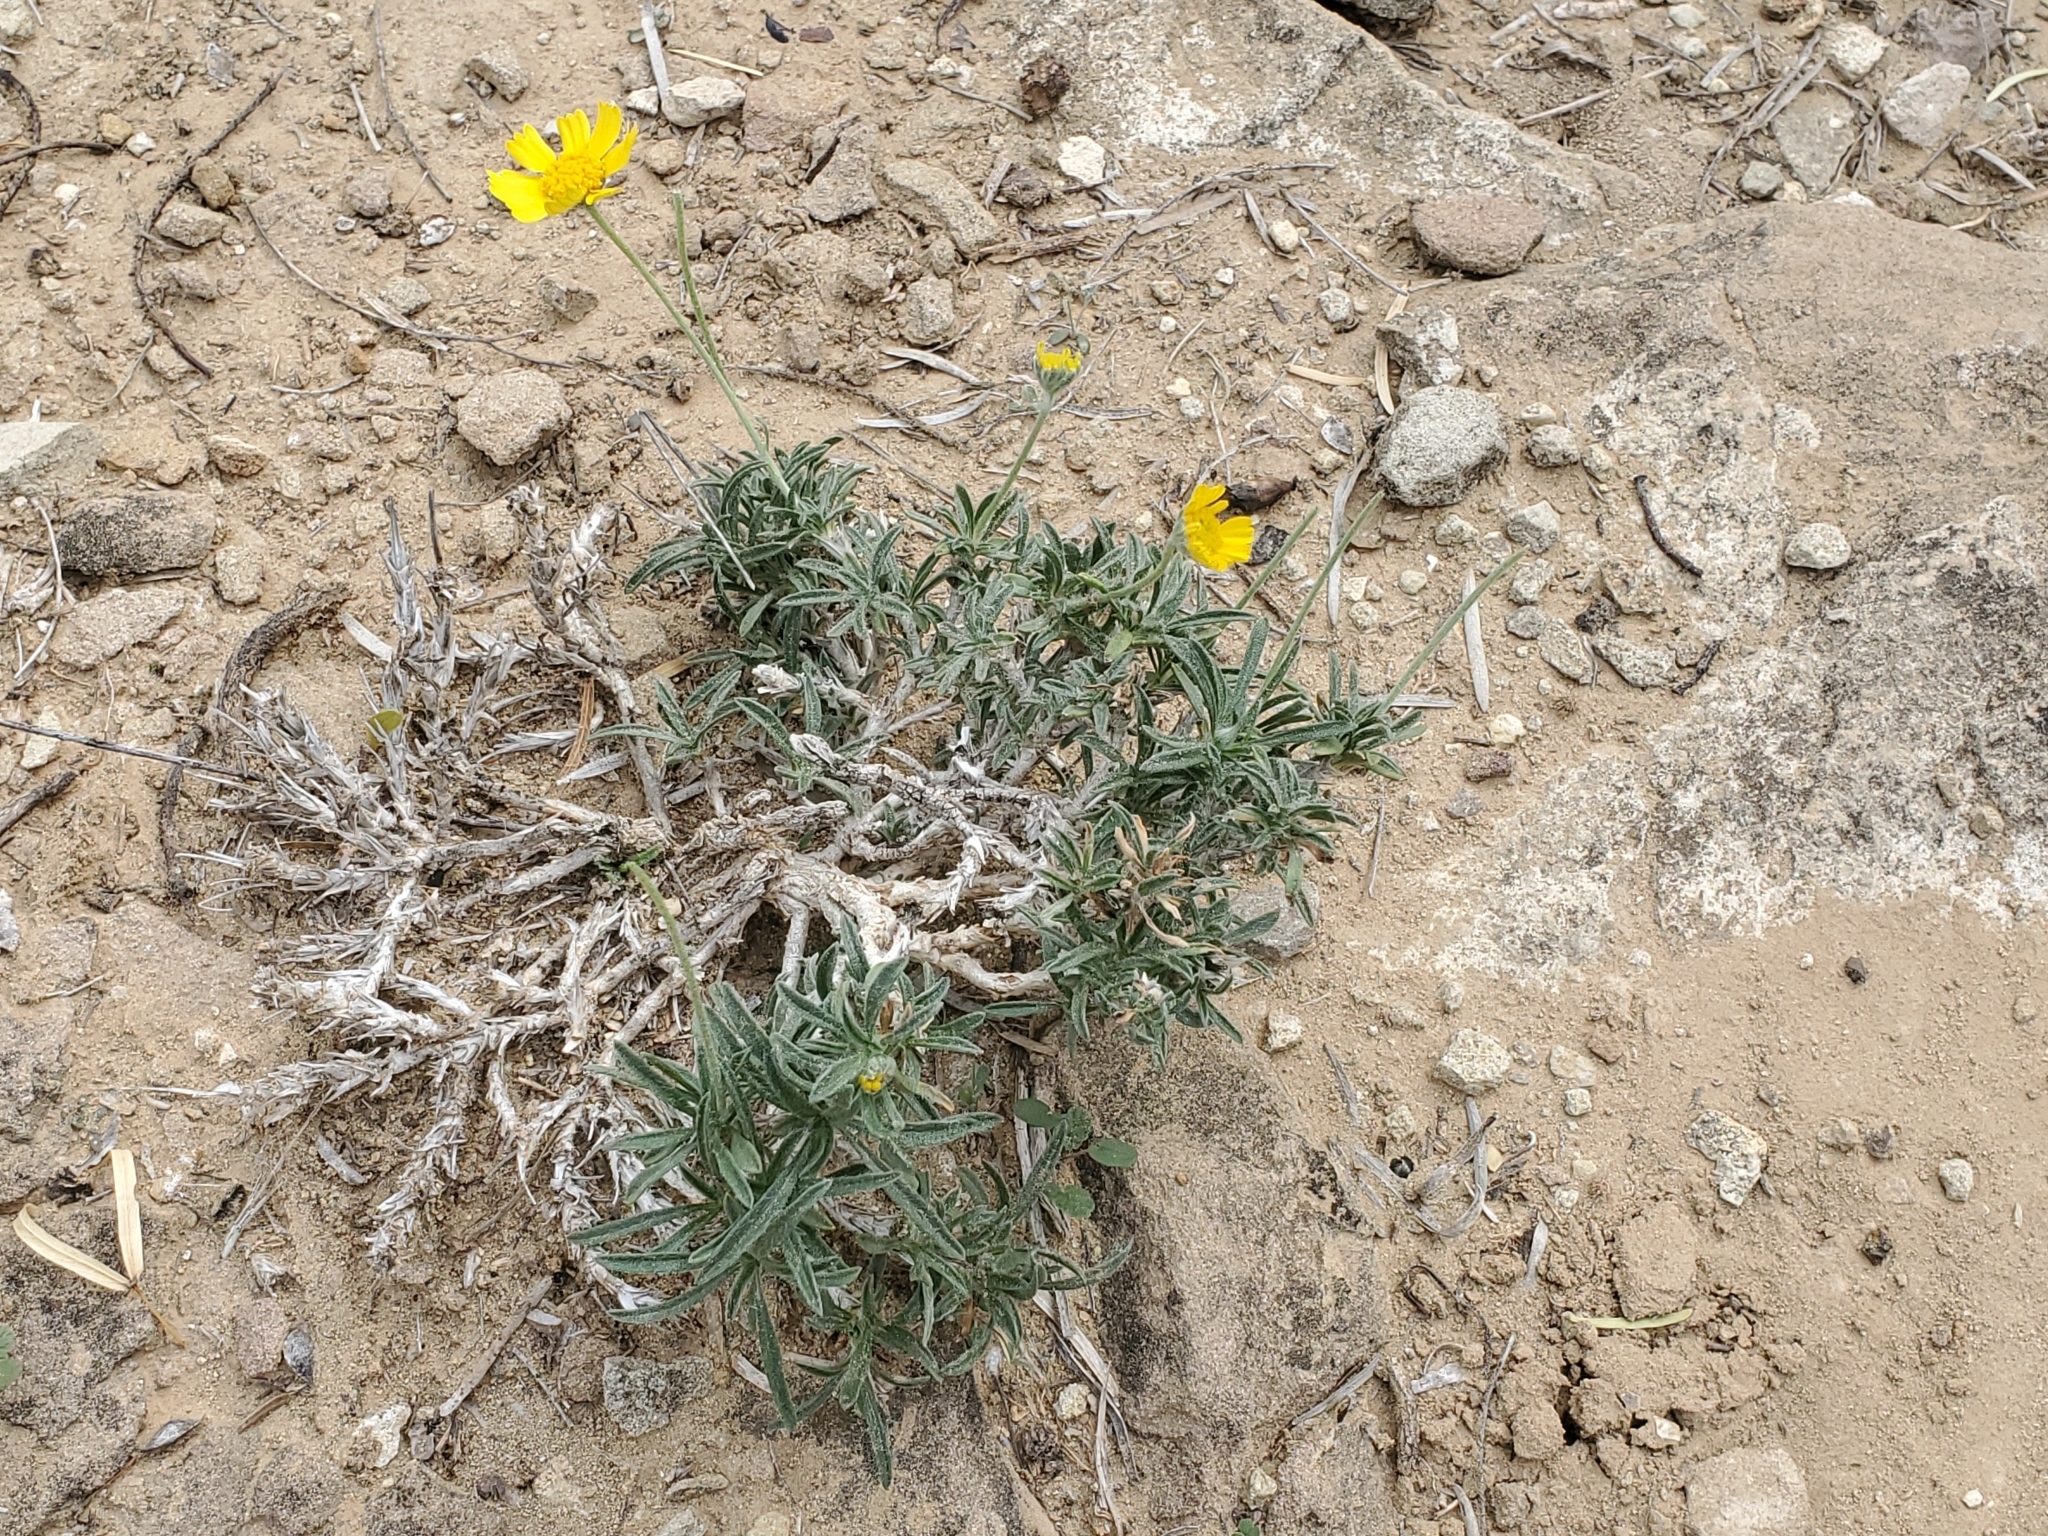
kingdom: Plantae
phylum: Tracheophyta
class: Magnoliopsida
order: Asterales
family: Asteraceae
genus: Tetraneuris
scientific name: Tetraneuris scaposa
